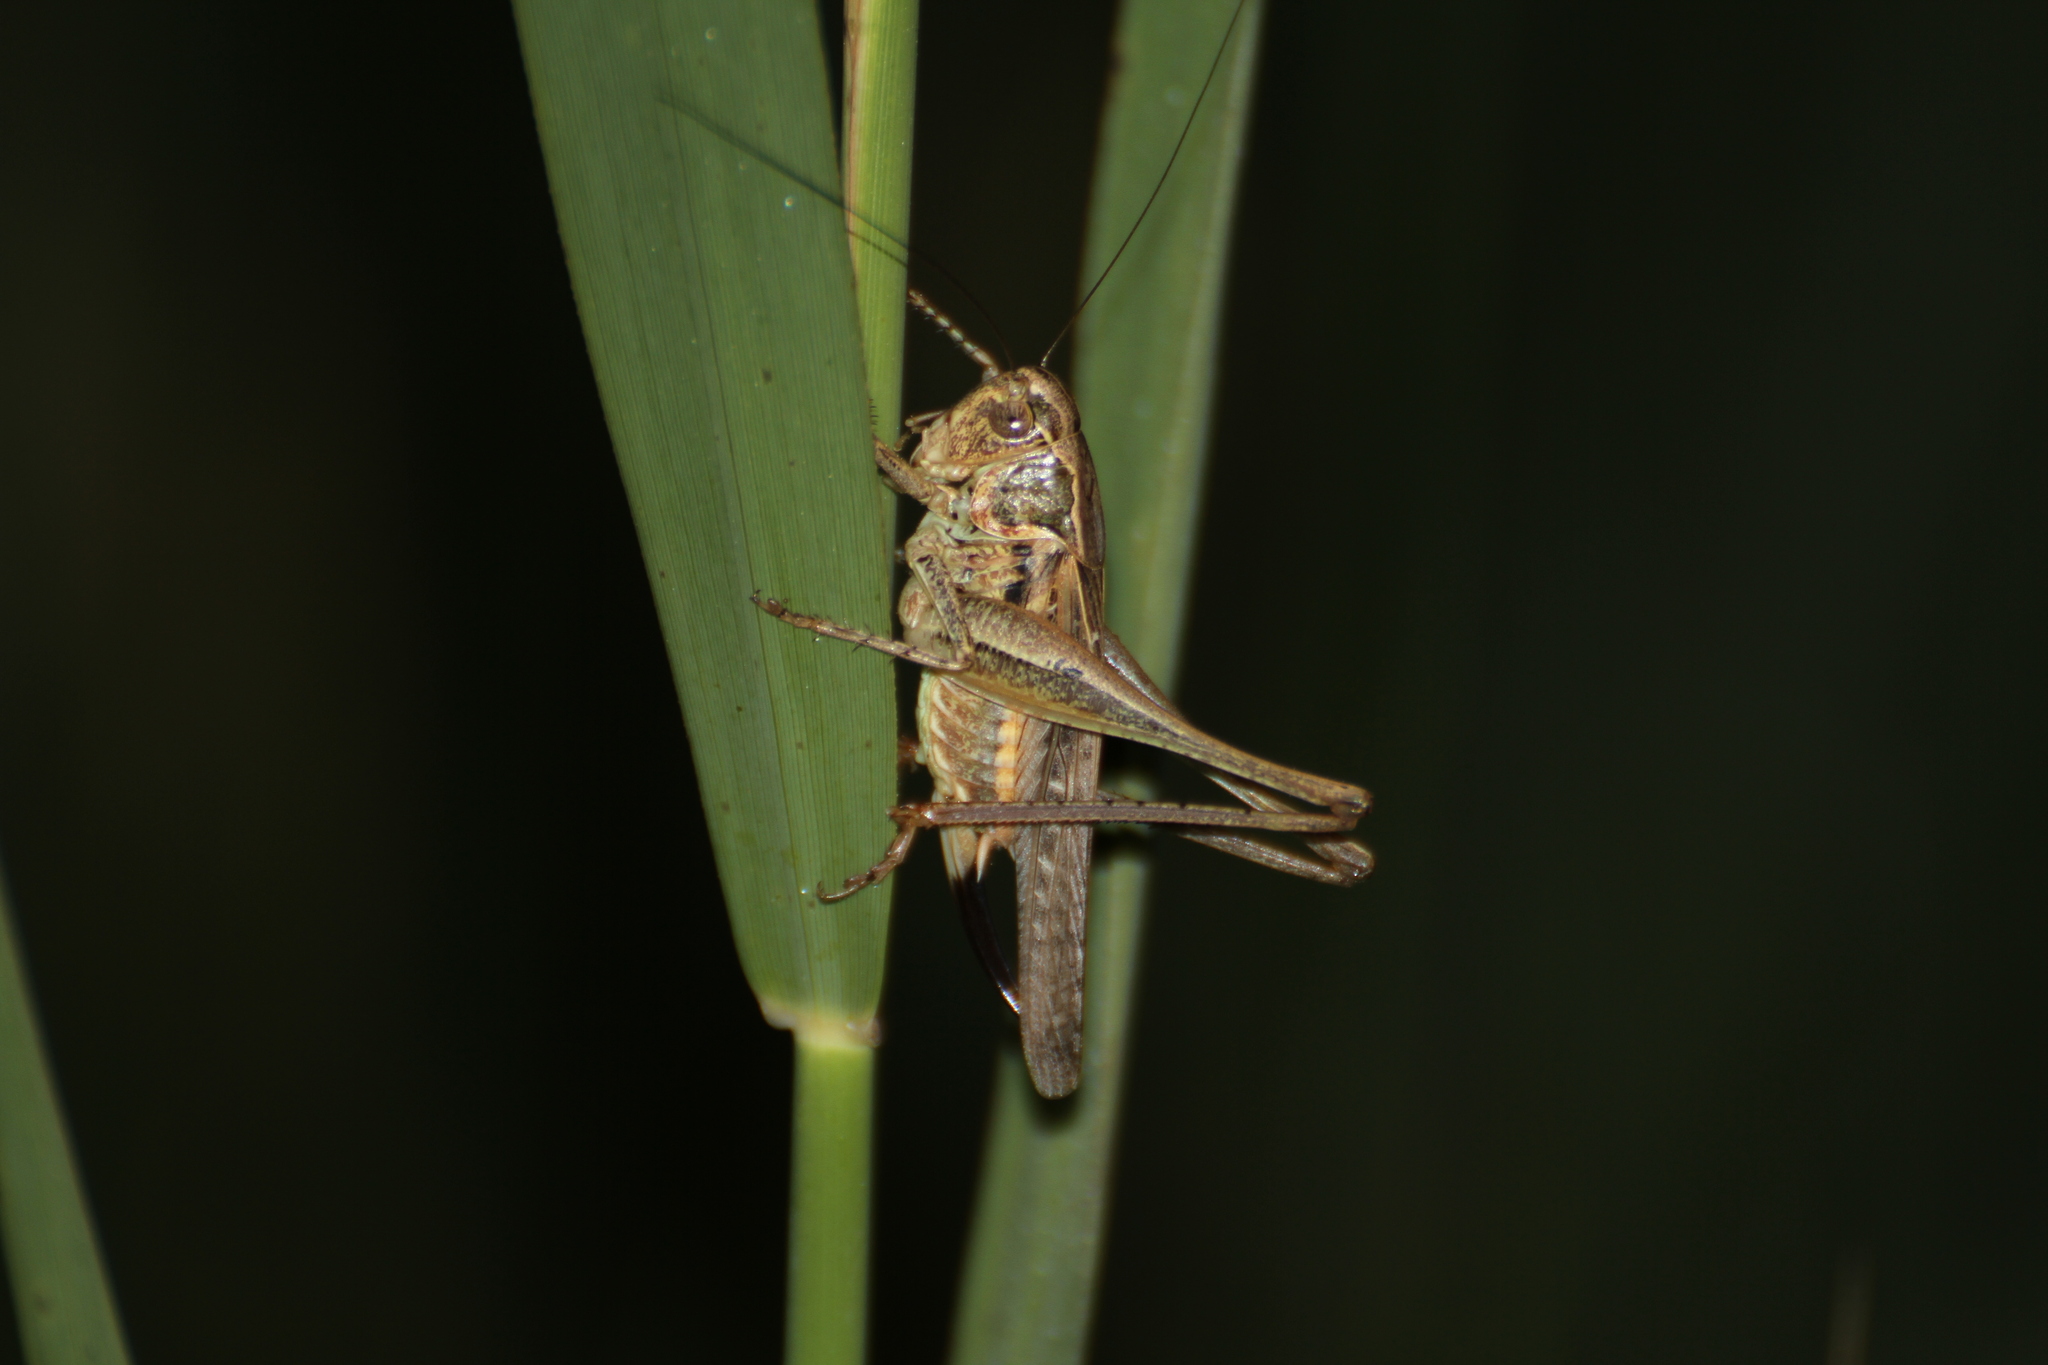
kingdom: Animalia
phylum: Arthropoda
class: Insecta
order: Orthoptera
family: Tettigoniidae
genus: Platycleis
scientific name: Platycleis affinis
